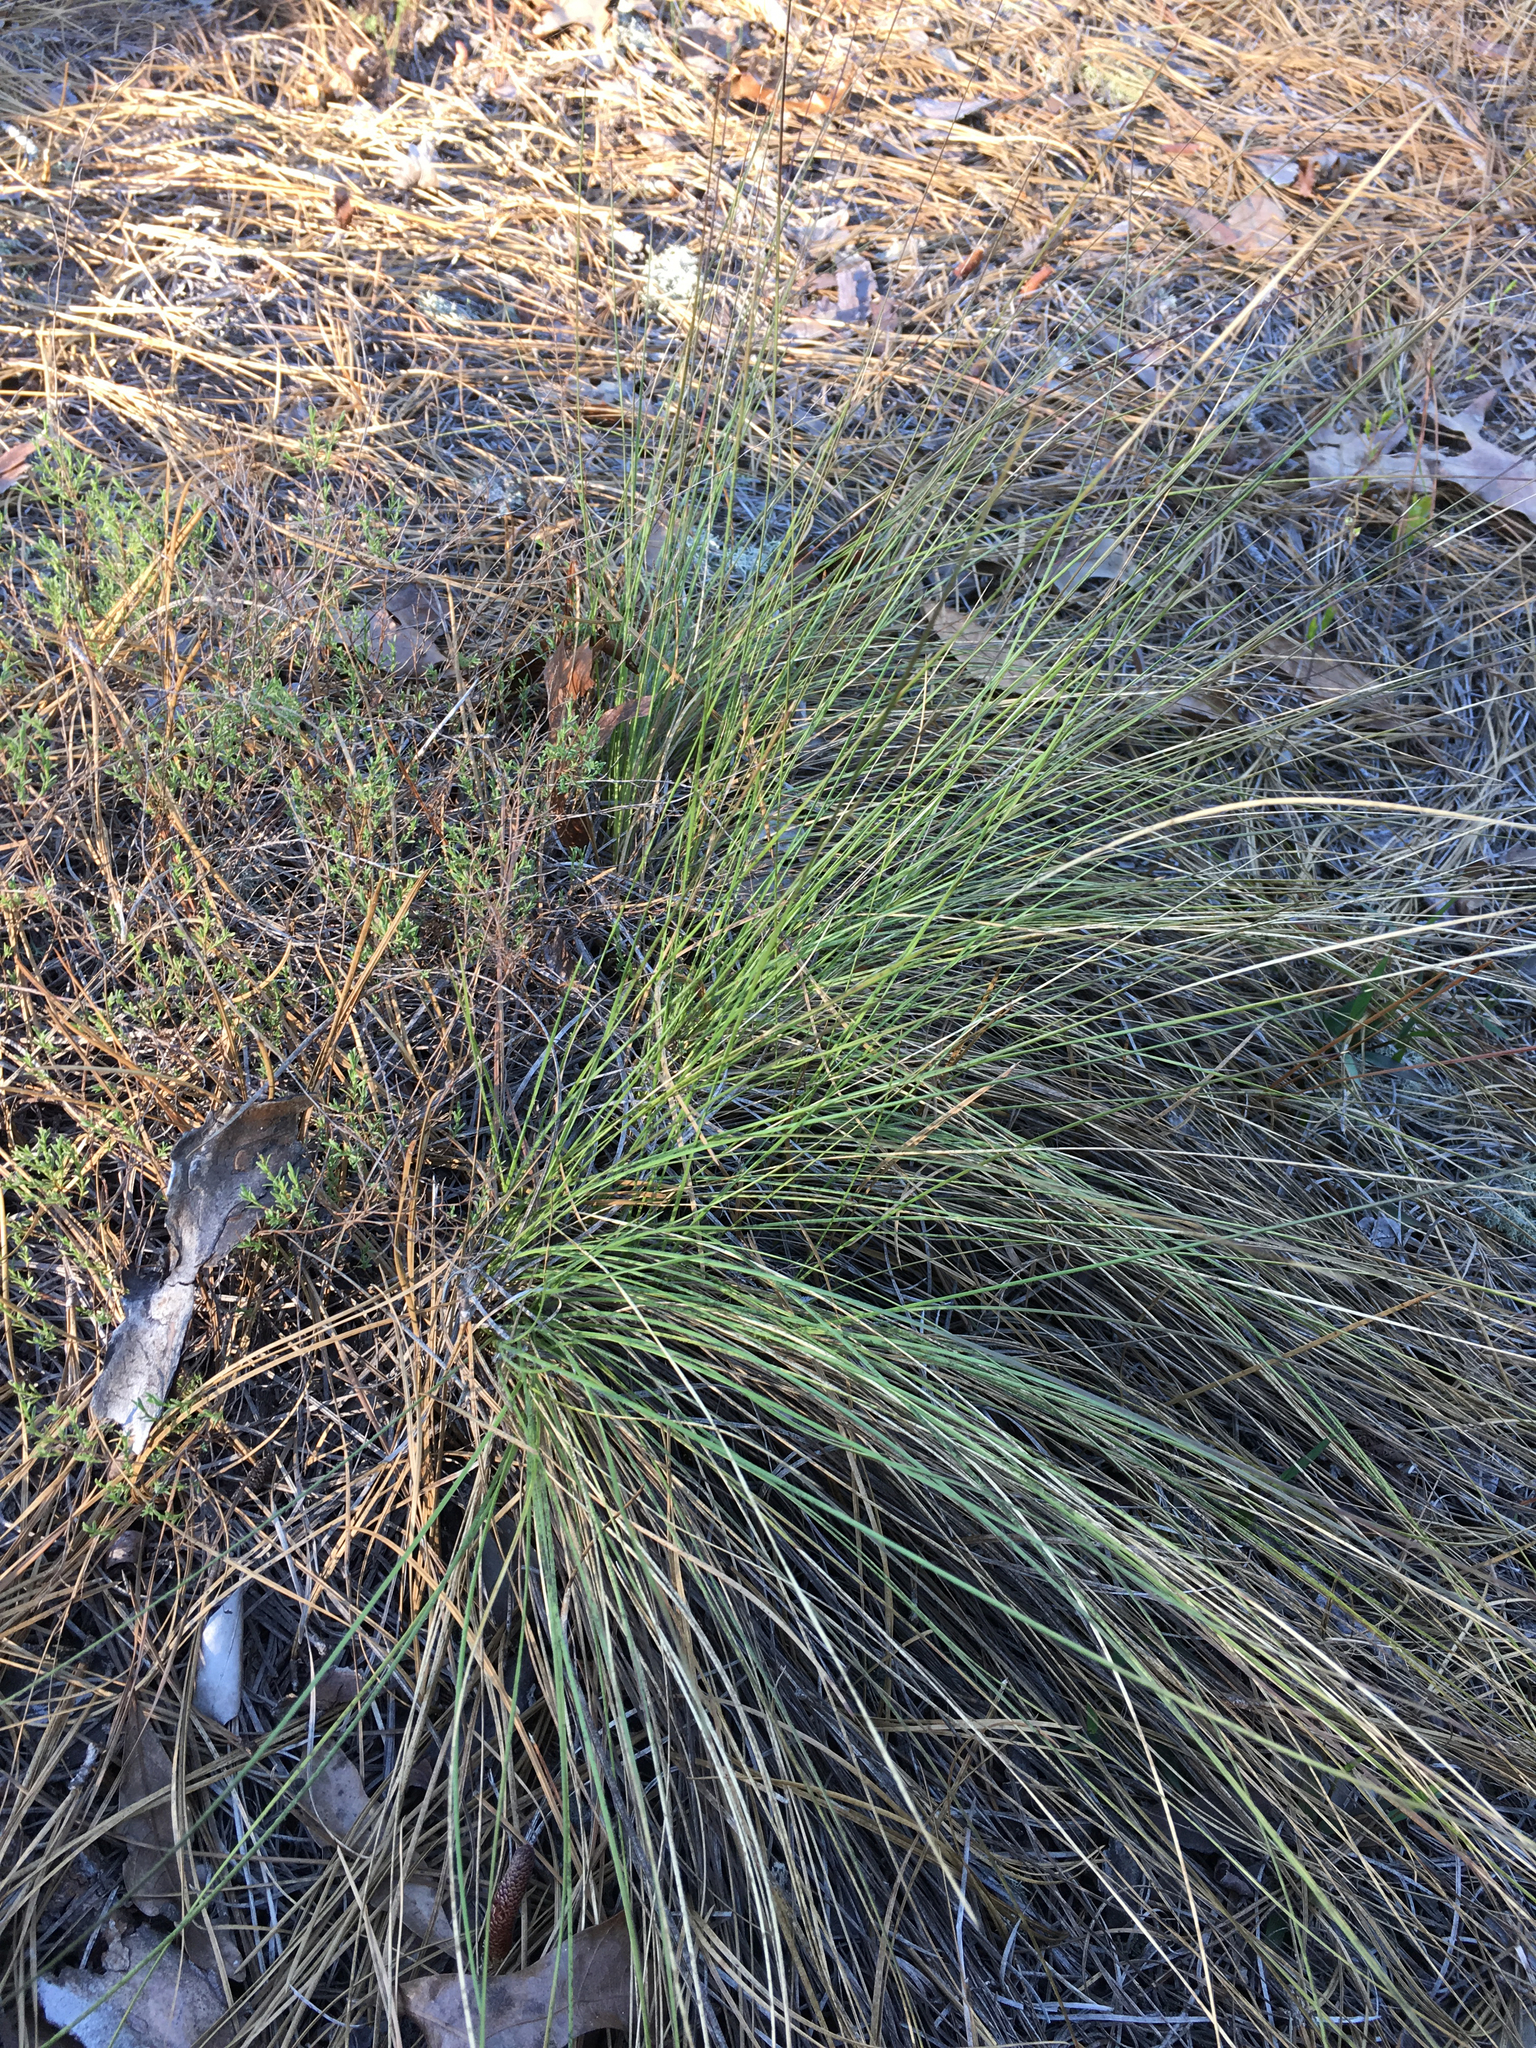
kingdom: Plantae
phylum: Tracheophyta
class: Liliopsida
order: Poales
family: Poaceae
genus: Aristida
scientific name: Aristida stricta
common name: Pineland three-awn
